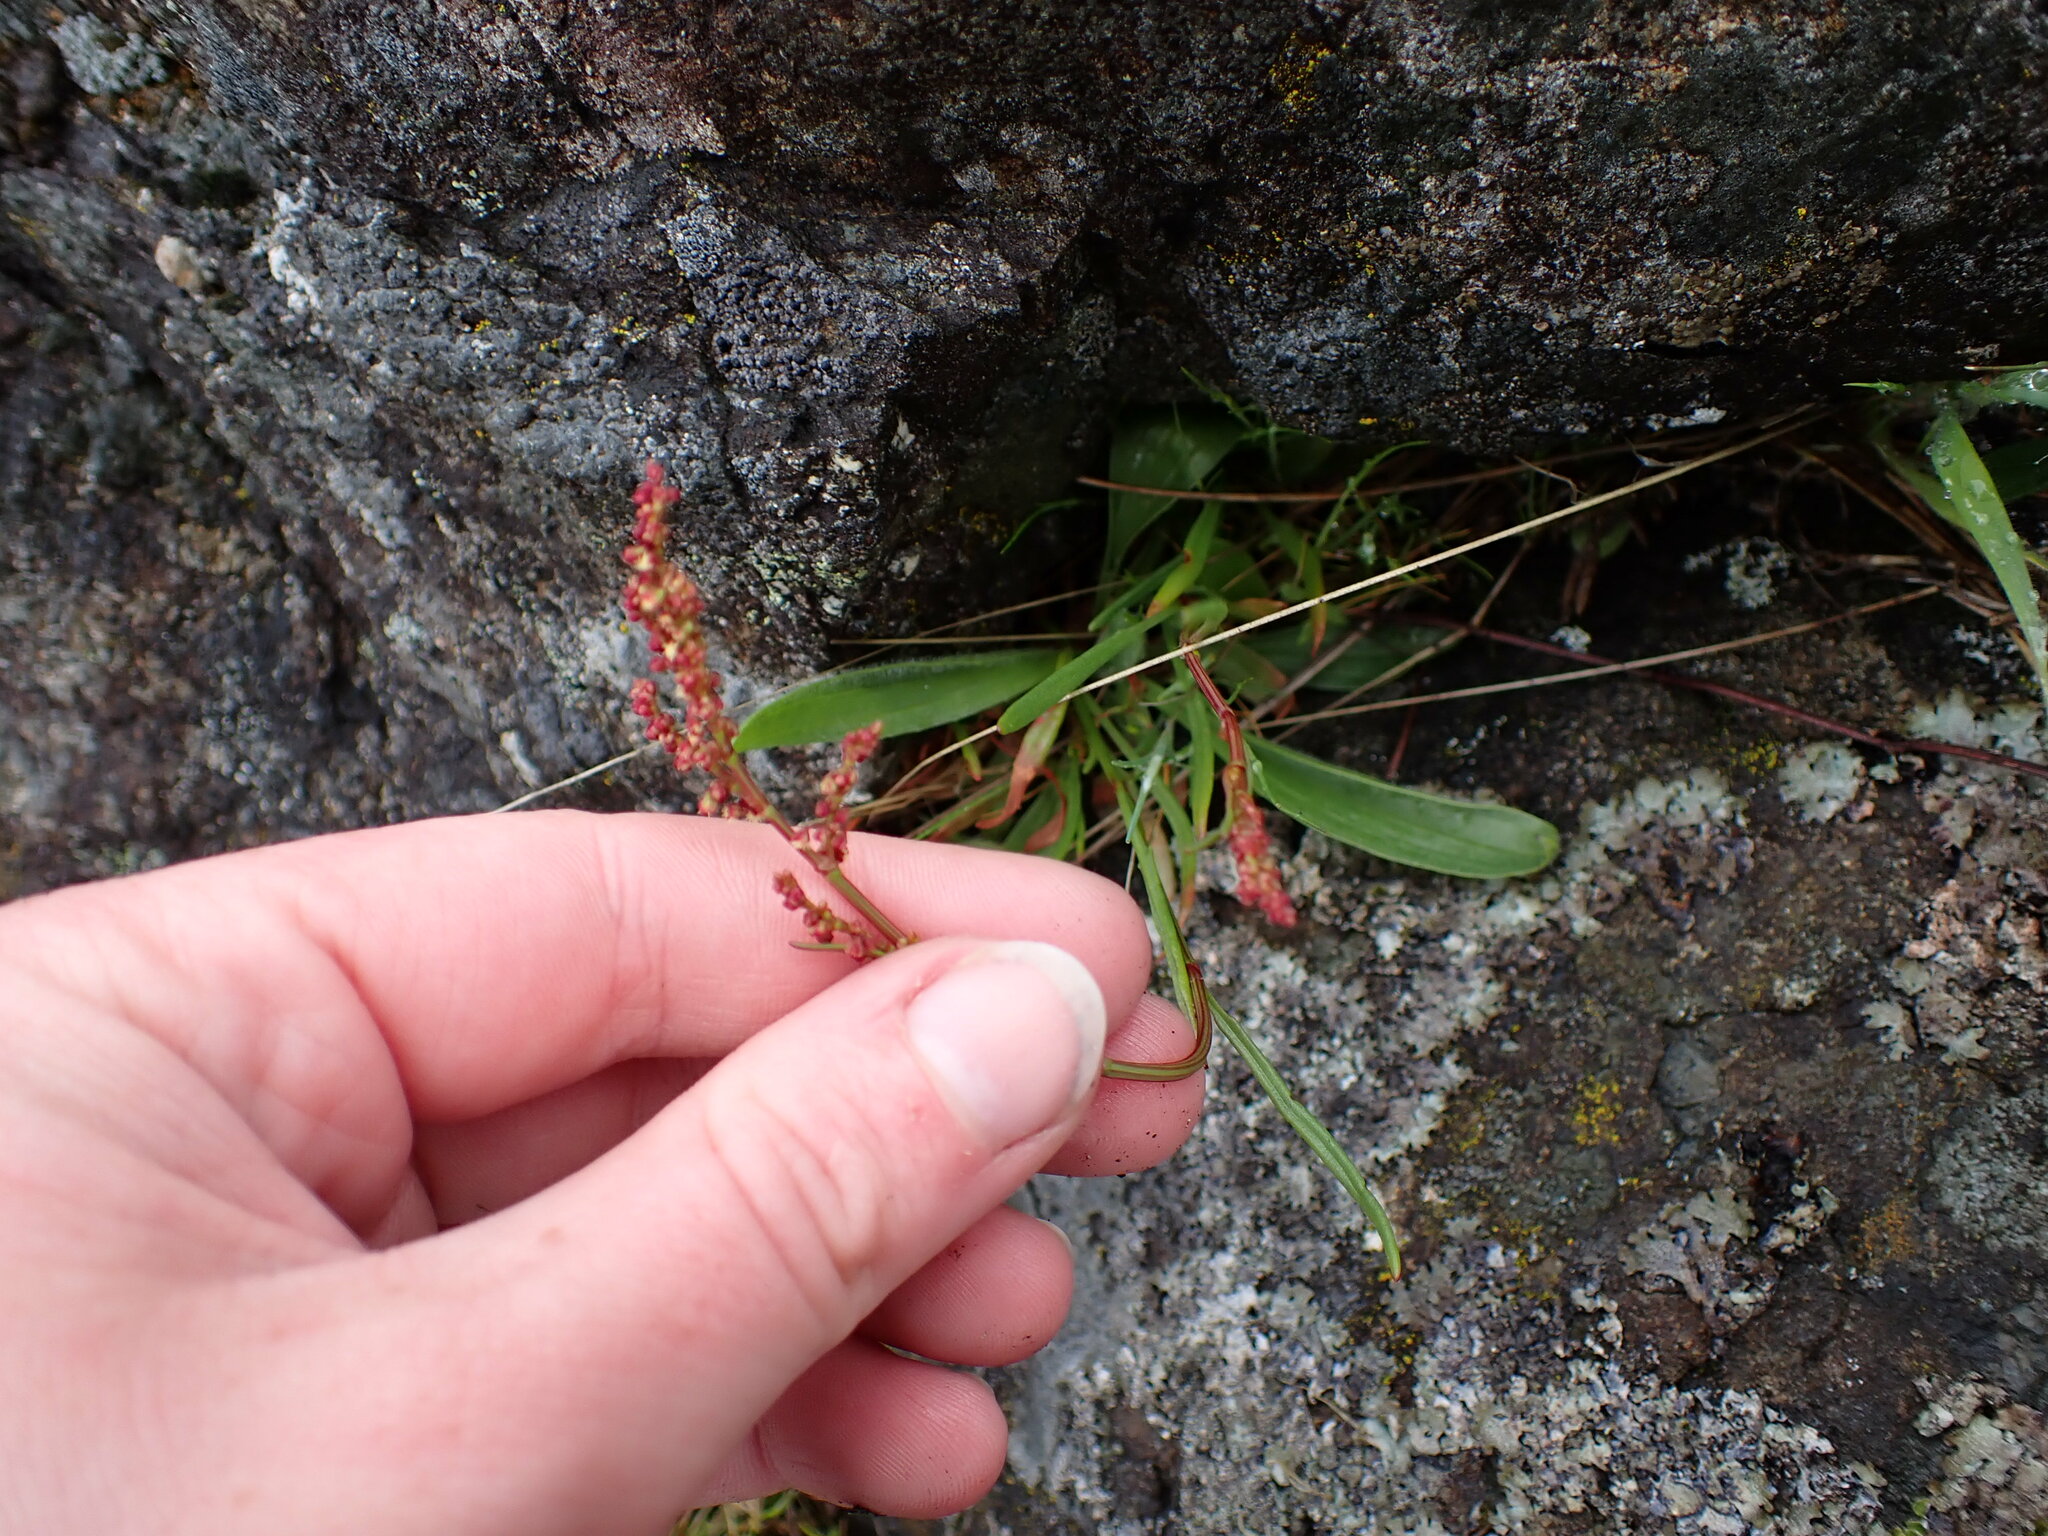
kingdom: Plantae
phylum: Tracheophyta
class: Magnoliopsida
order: Caryophyllales
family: Polygonaceae
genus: Rumex
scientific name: Rumex acetosella
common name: Common sheep sorrel
